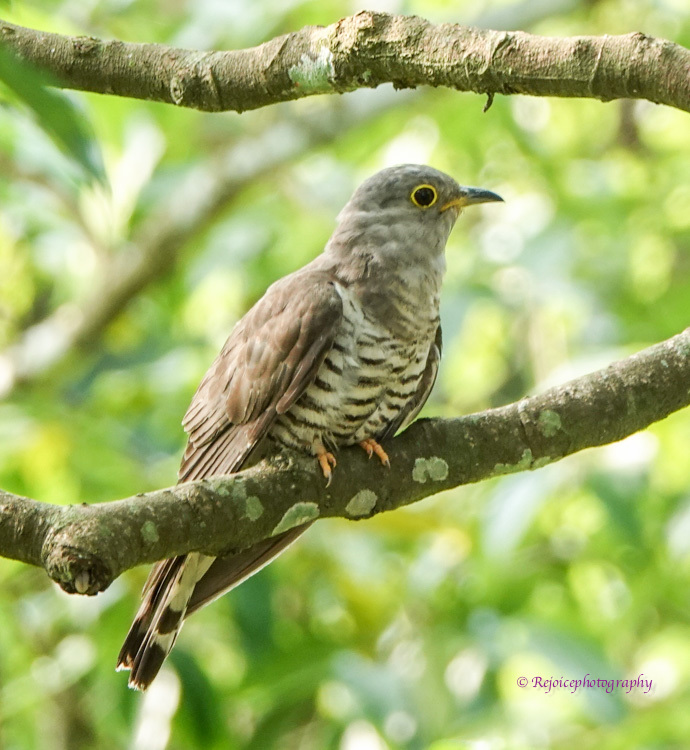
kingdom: Animalia
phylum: Chordata
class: Aves
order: Cuculiformes
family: Cuculidae
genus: Cuculus
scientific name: Cuculus micropterus
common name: Indian cuckoo
